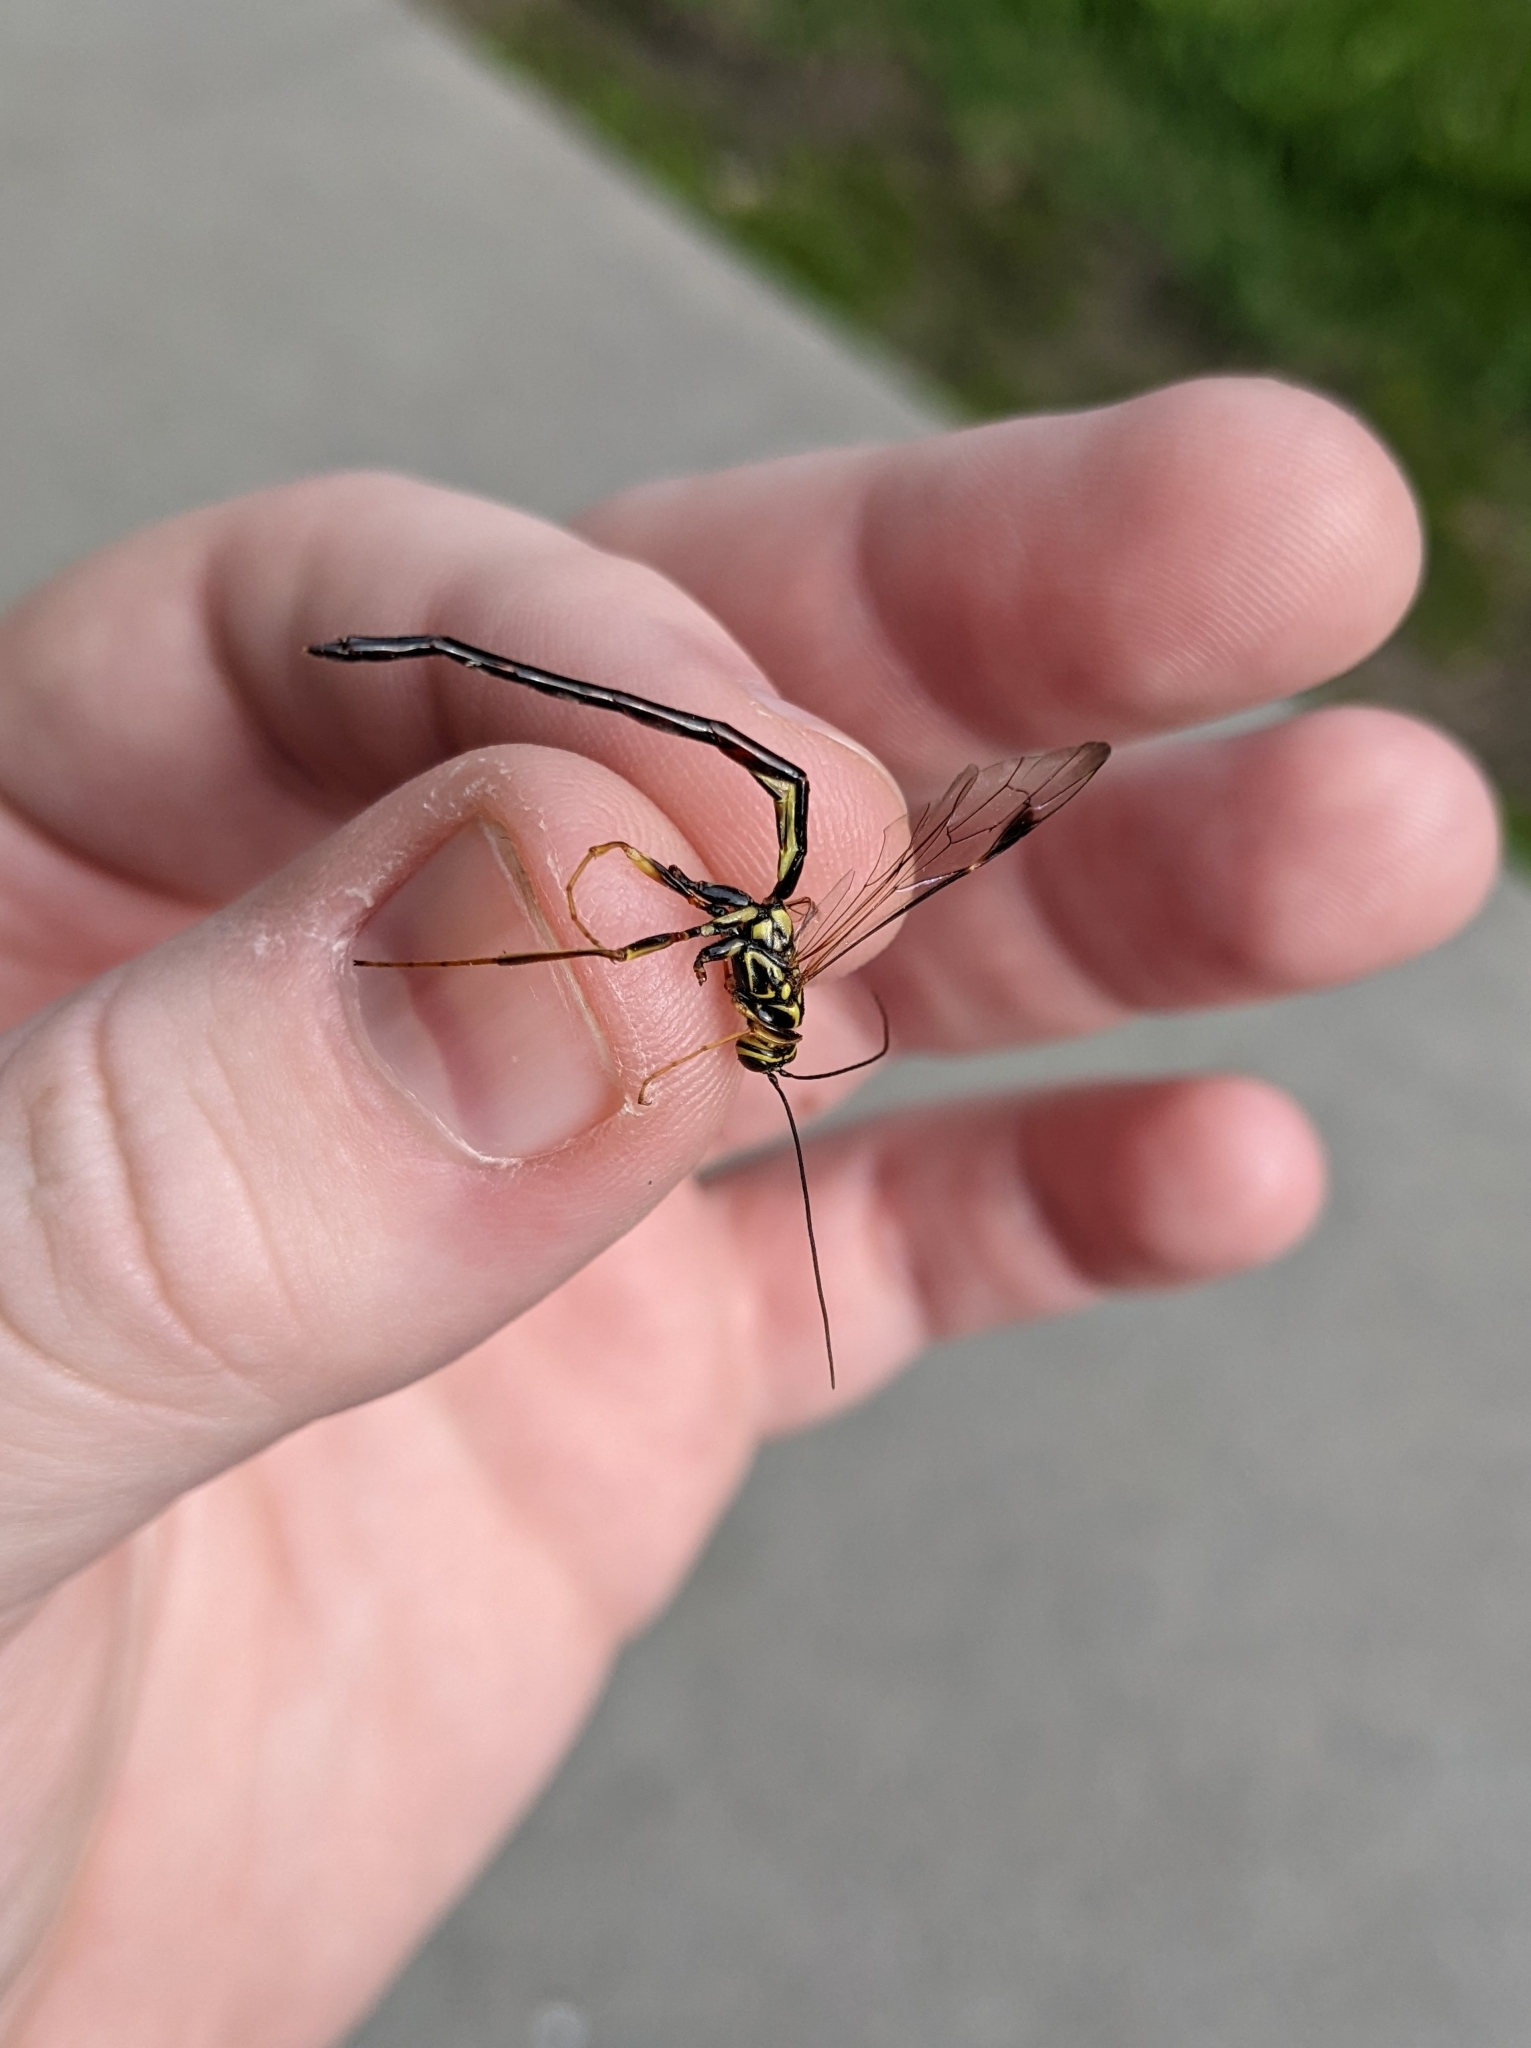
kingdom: Animalia
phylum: Arthropoda
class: Insecta
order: Hymenoptera
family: Ichneumonidae
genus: Megarhyssa
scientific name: Megarhyssa macrura
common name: Long-tailed giant ichneumonid wasp
